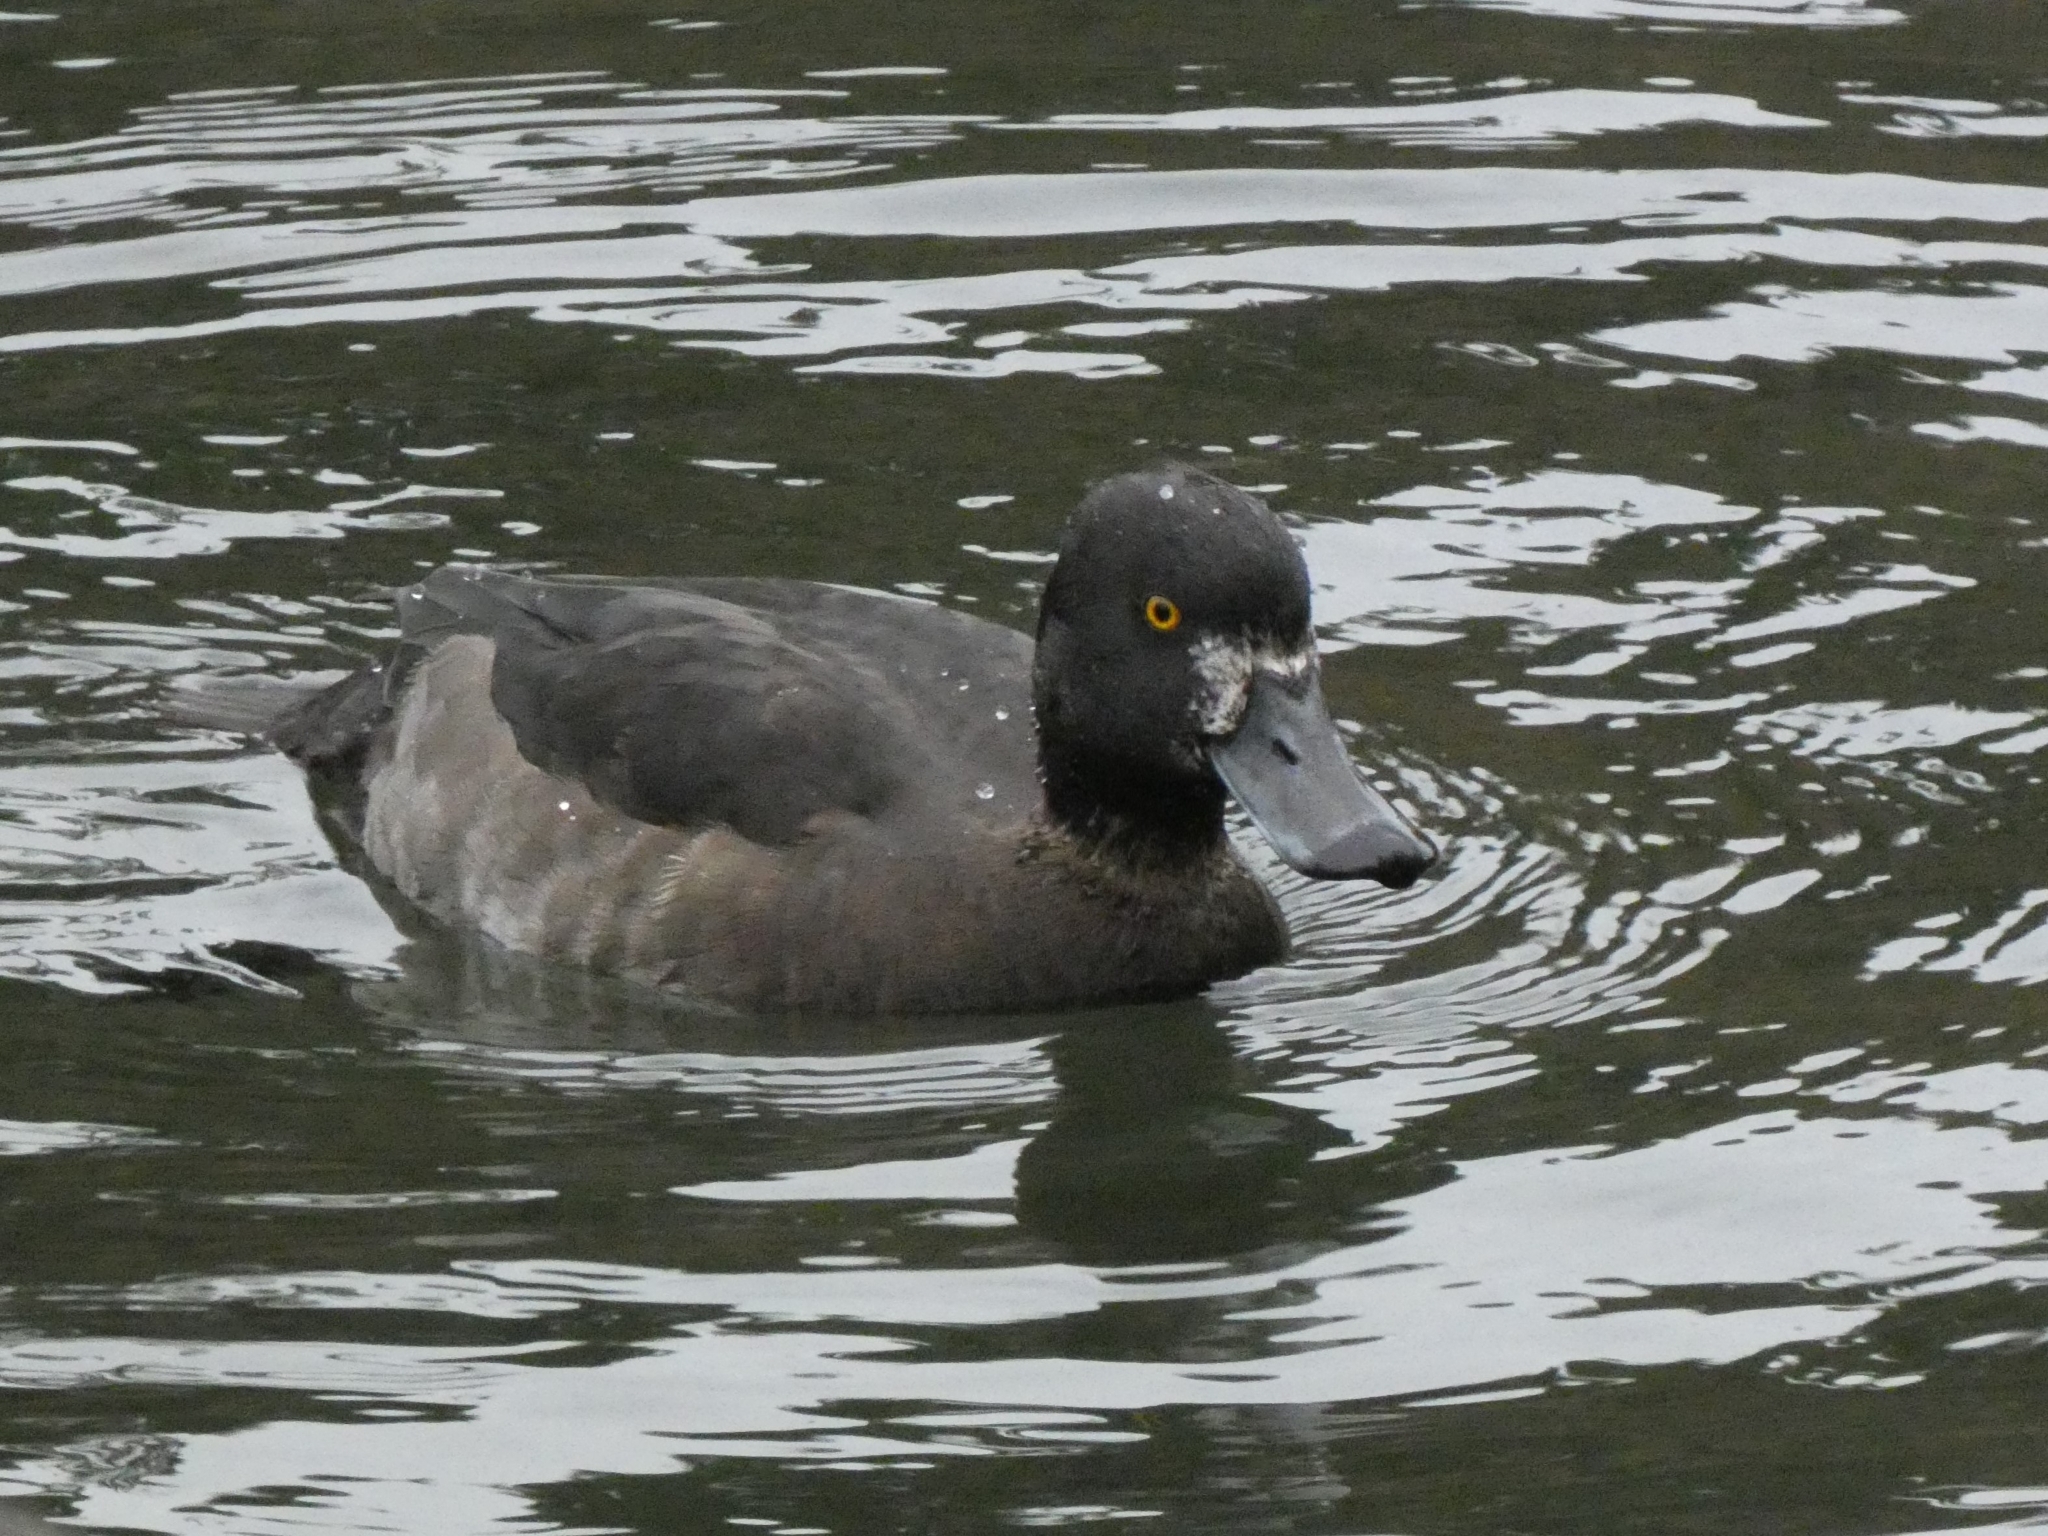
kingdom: Animalia
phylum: Chordata
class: Aves
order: Anseriformes
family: Anatidae
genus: Aythya
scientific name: Aythya fuligula
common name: Tufted duck
